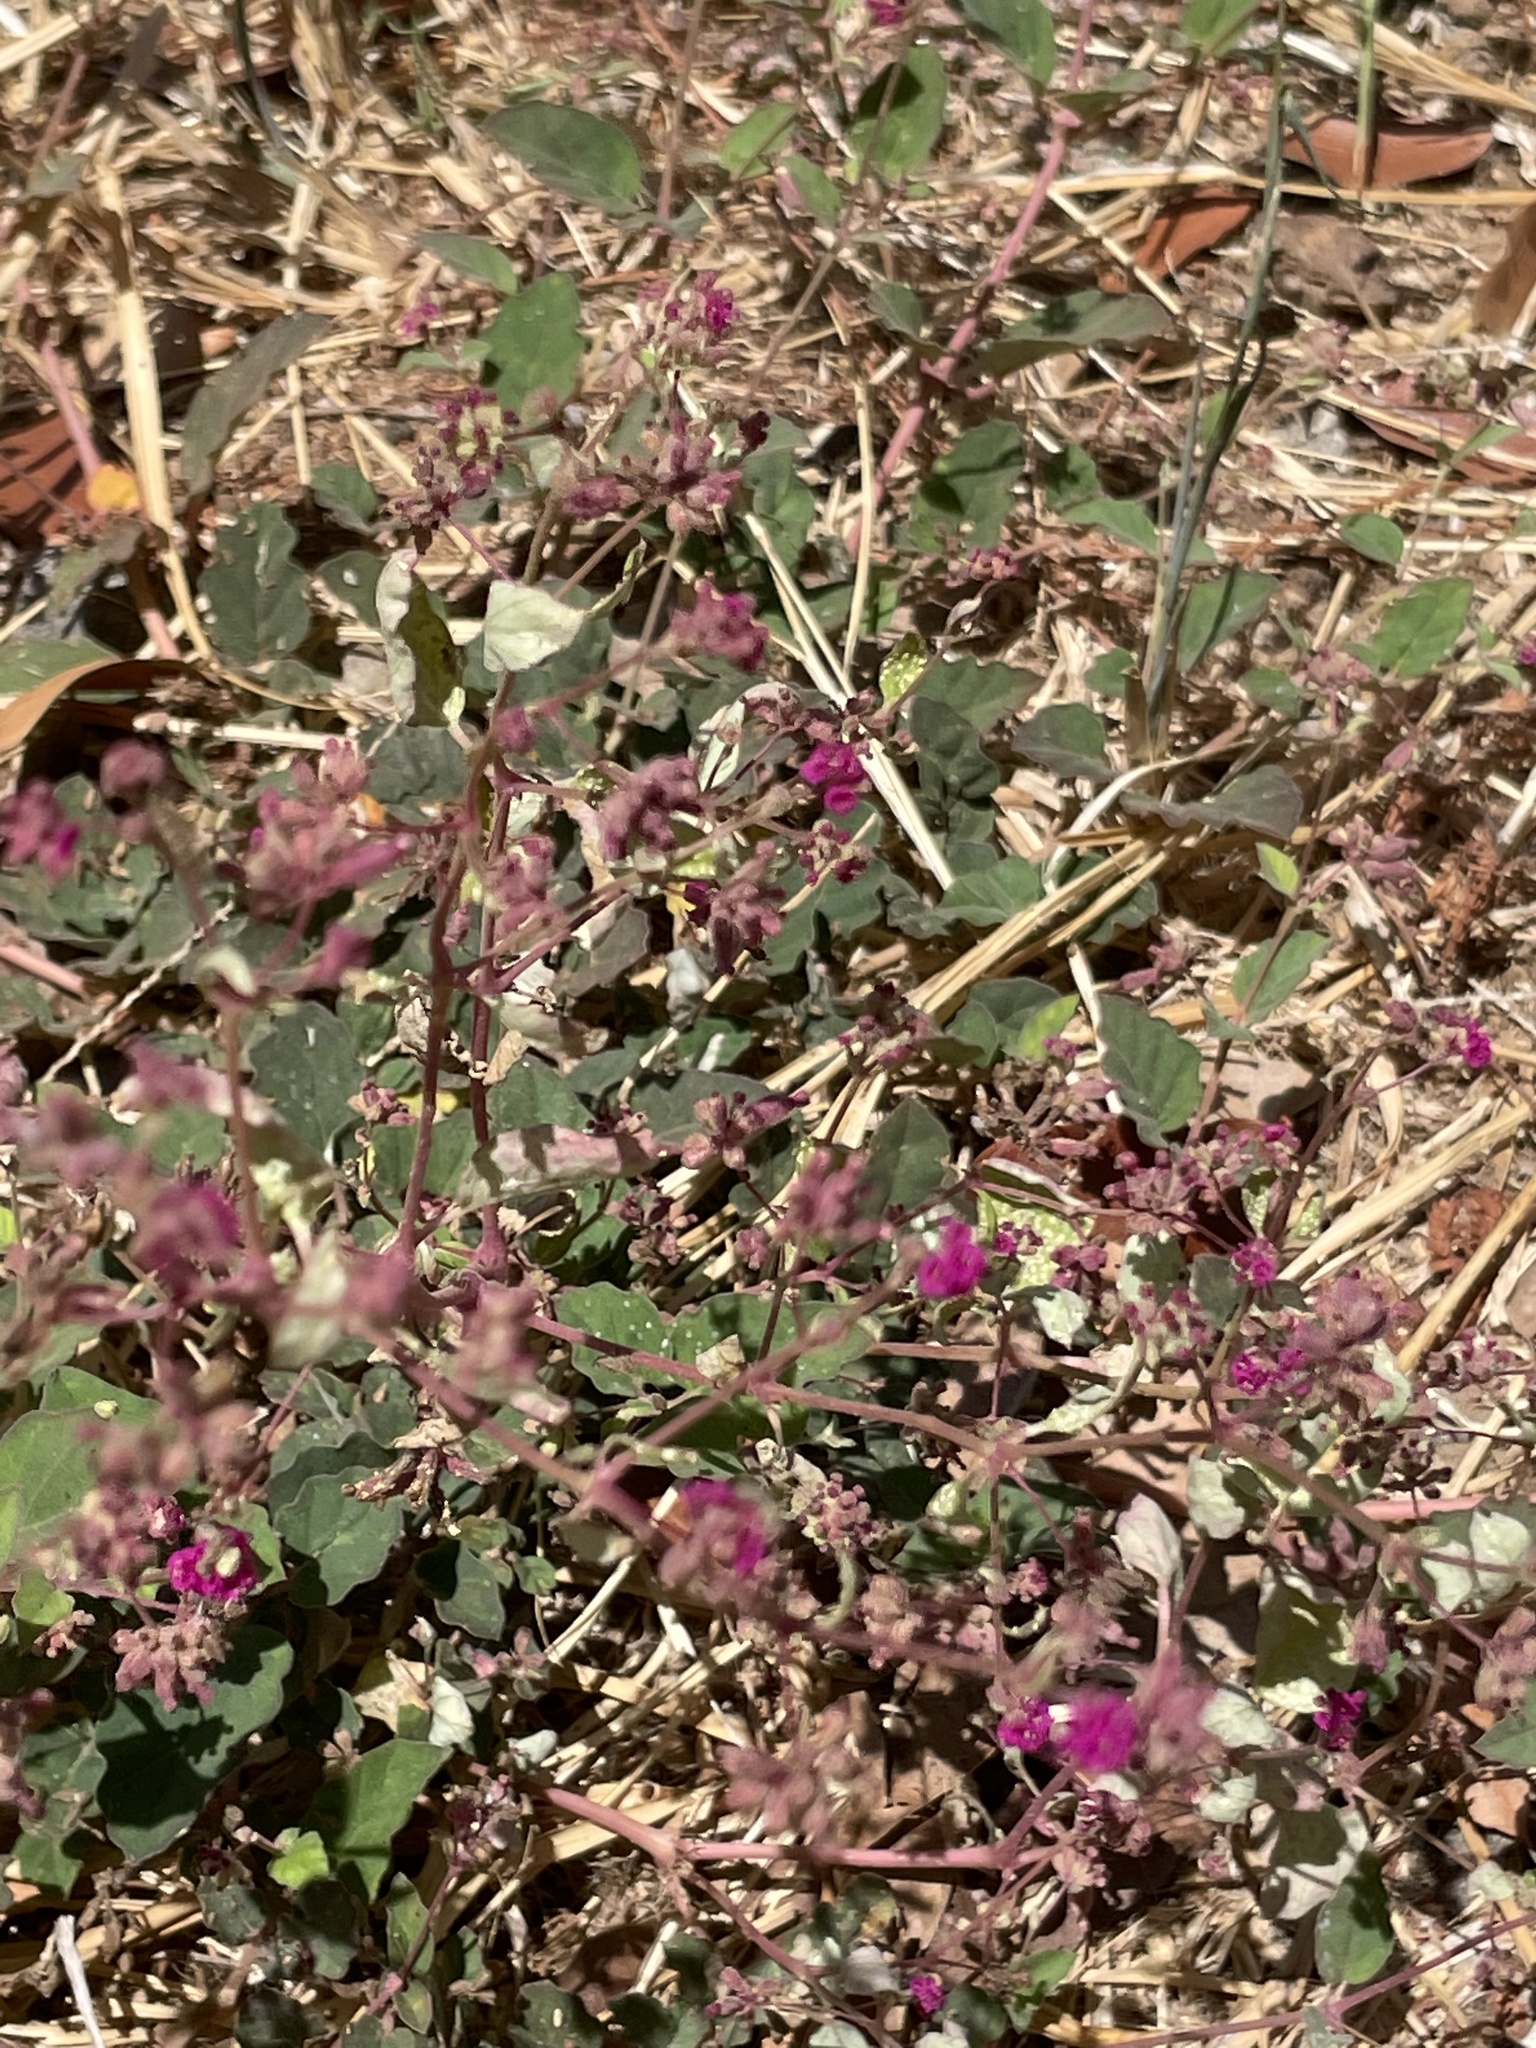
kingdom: Plantae
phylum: Tracheophyta
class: Magnoliopsida
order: Caryophyllales
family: Nyctaginaceae
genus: Boerhavia
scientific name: Boerhavia coccinea
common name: Scarlet spiderling
